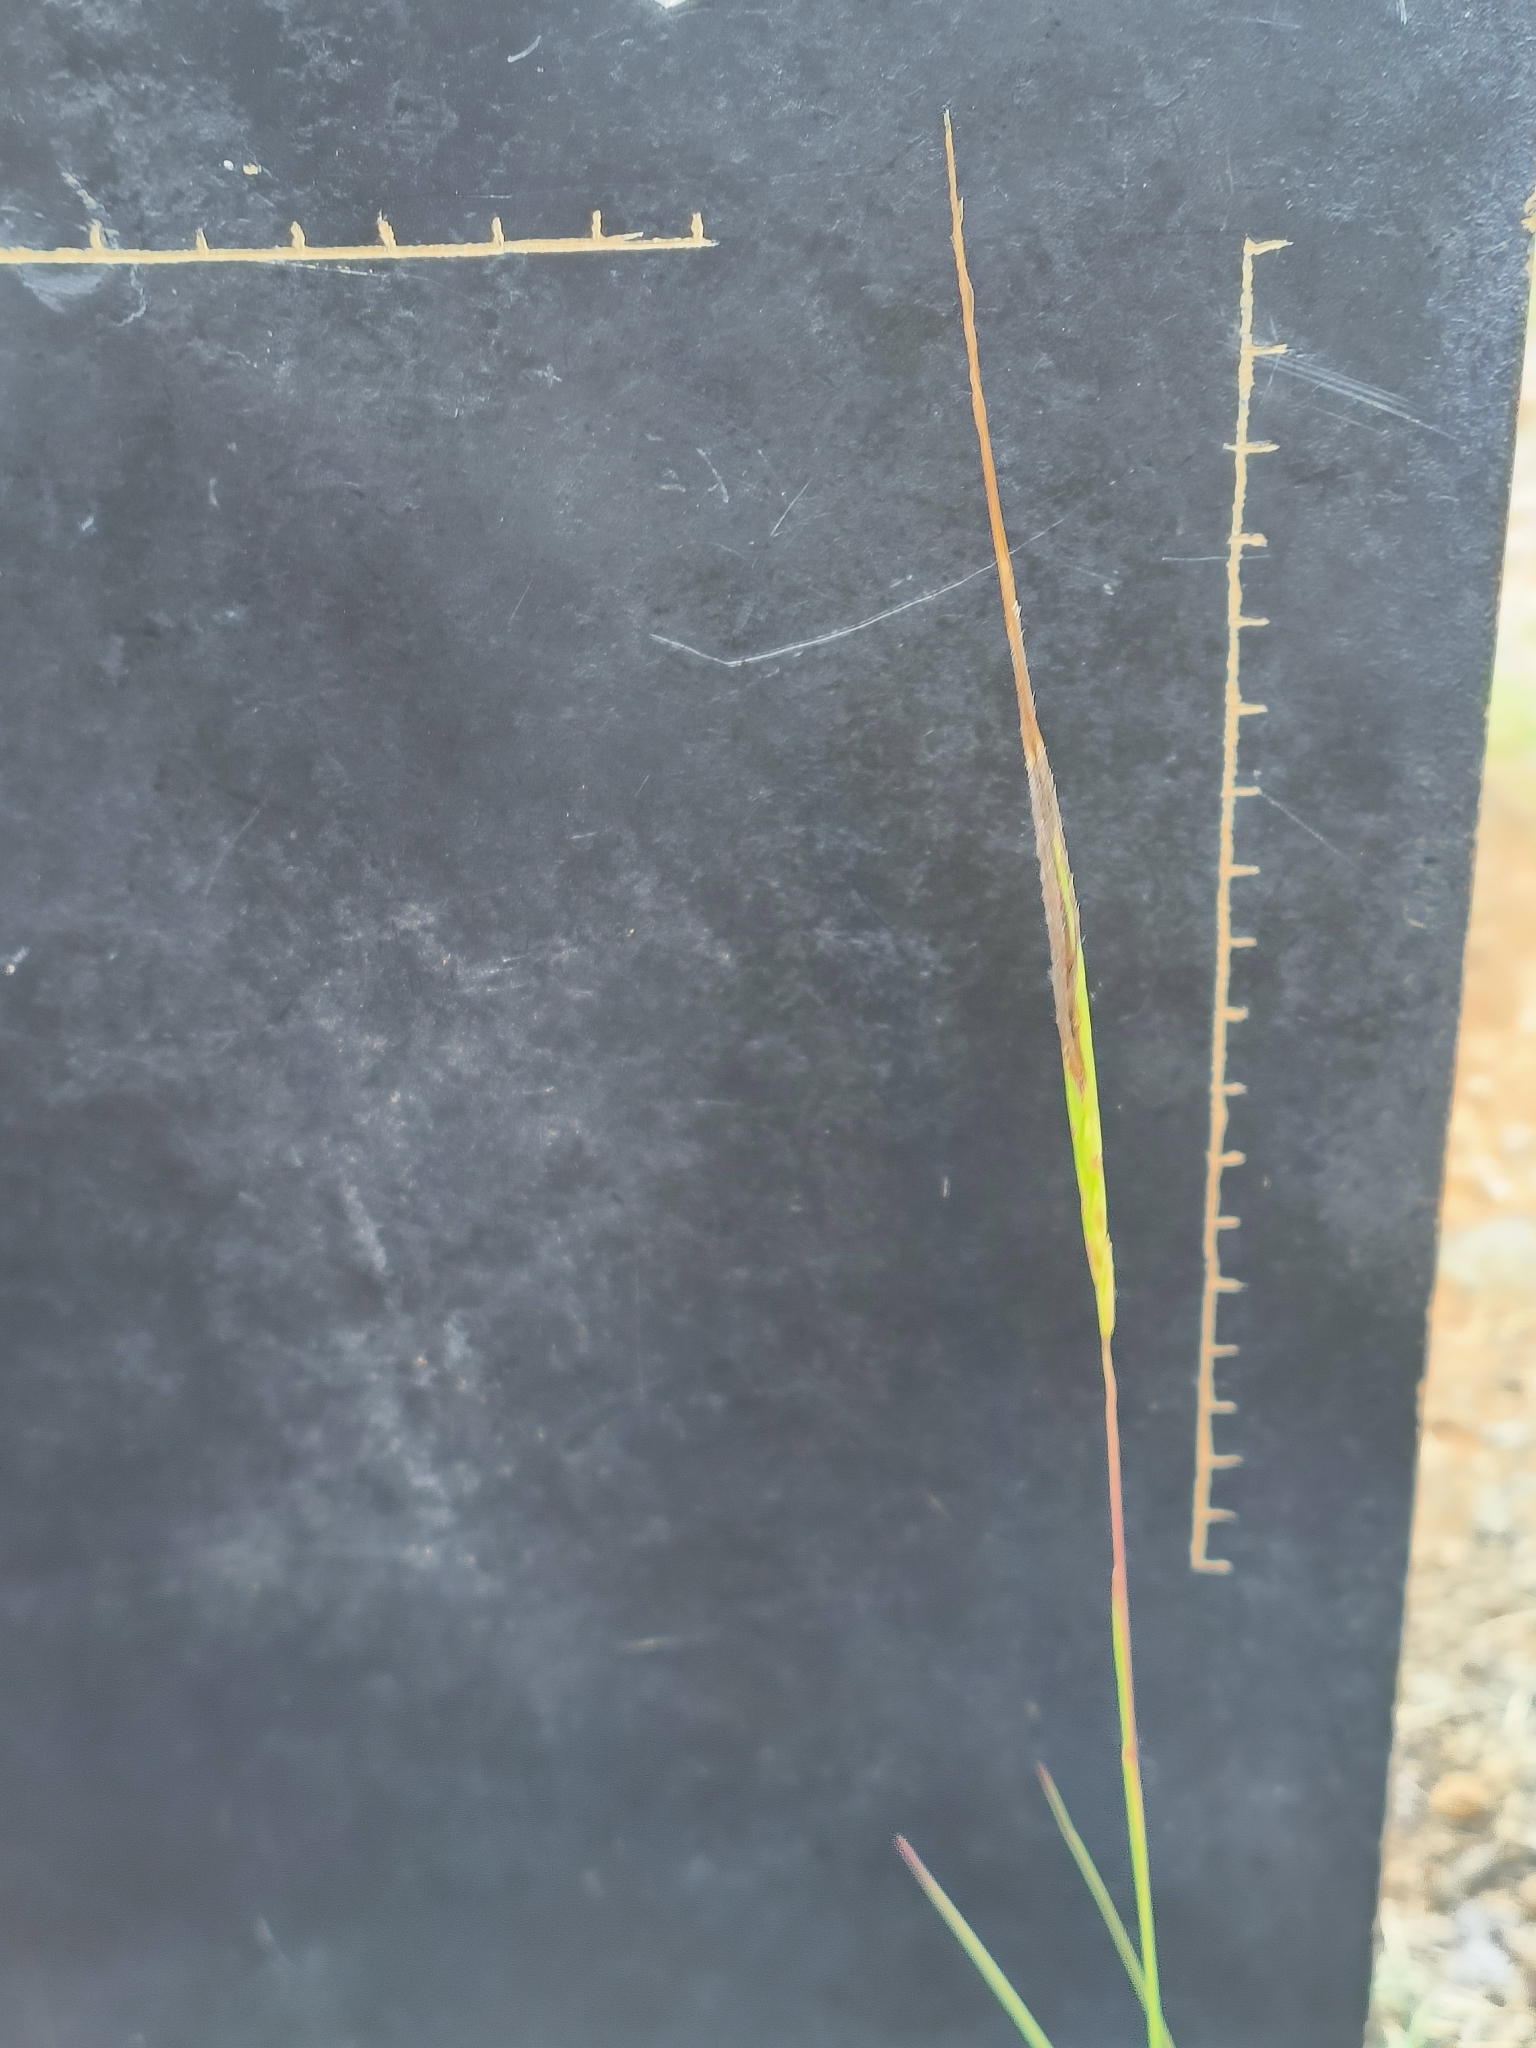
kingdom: Plantae
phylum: Tracheophyta
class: Liliopsida
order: Poales
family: Poaceae
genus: Heteropogon
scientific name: Heteropogon contortus
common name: Tanglehead
